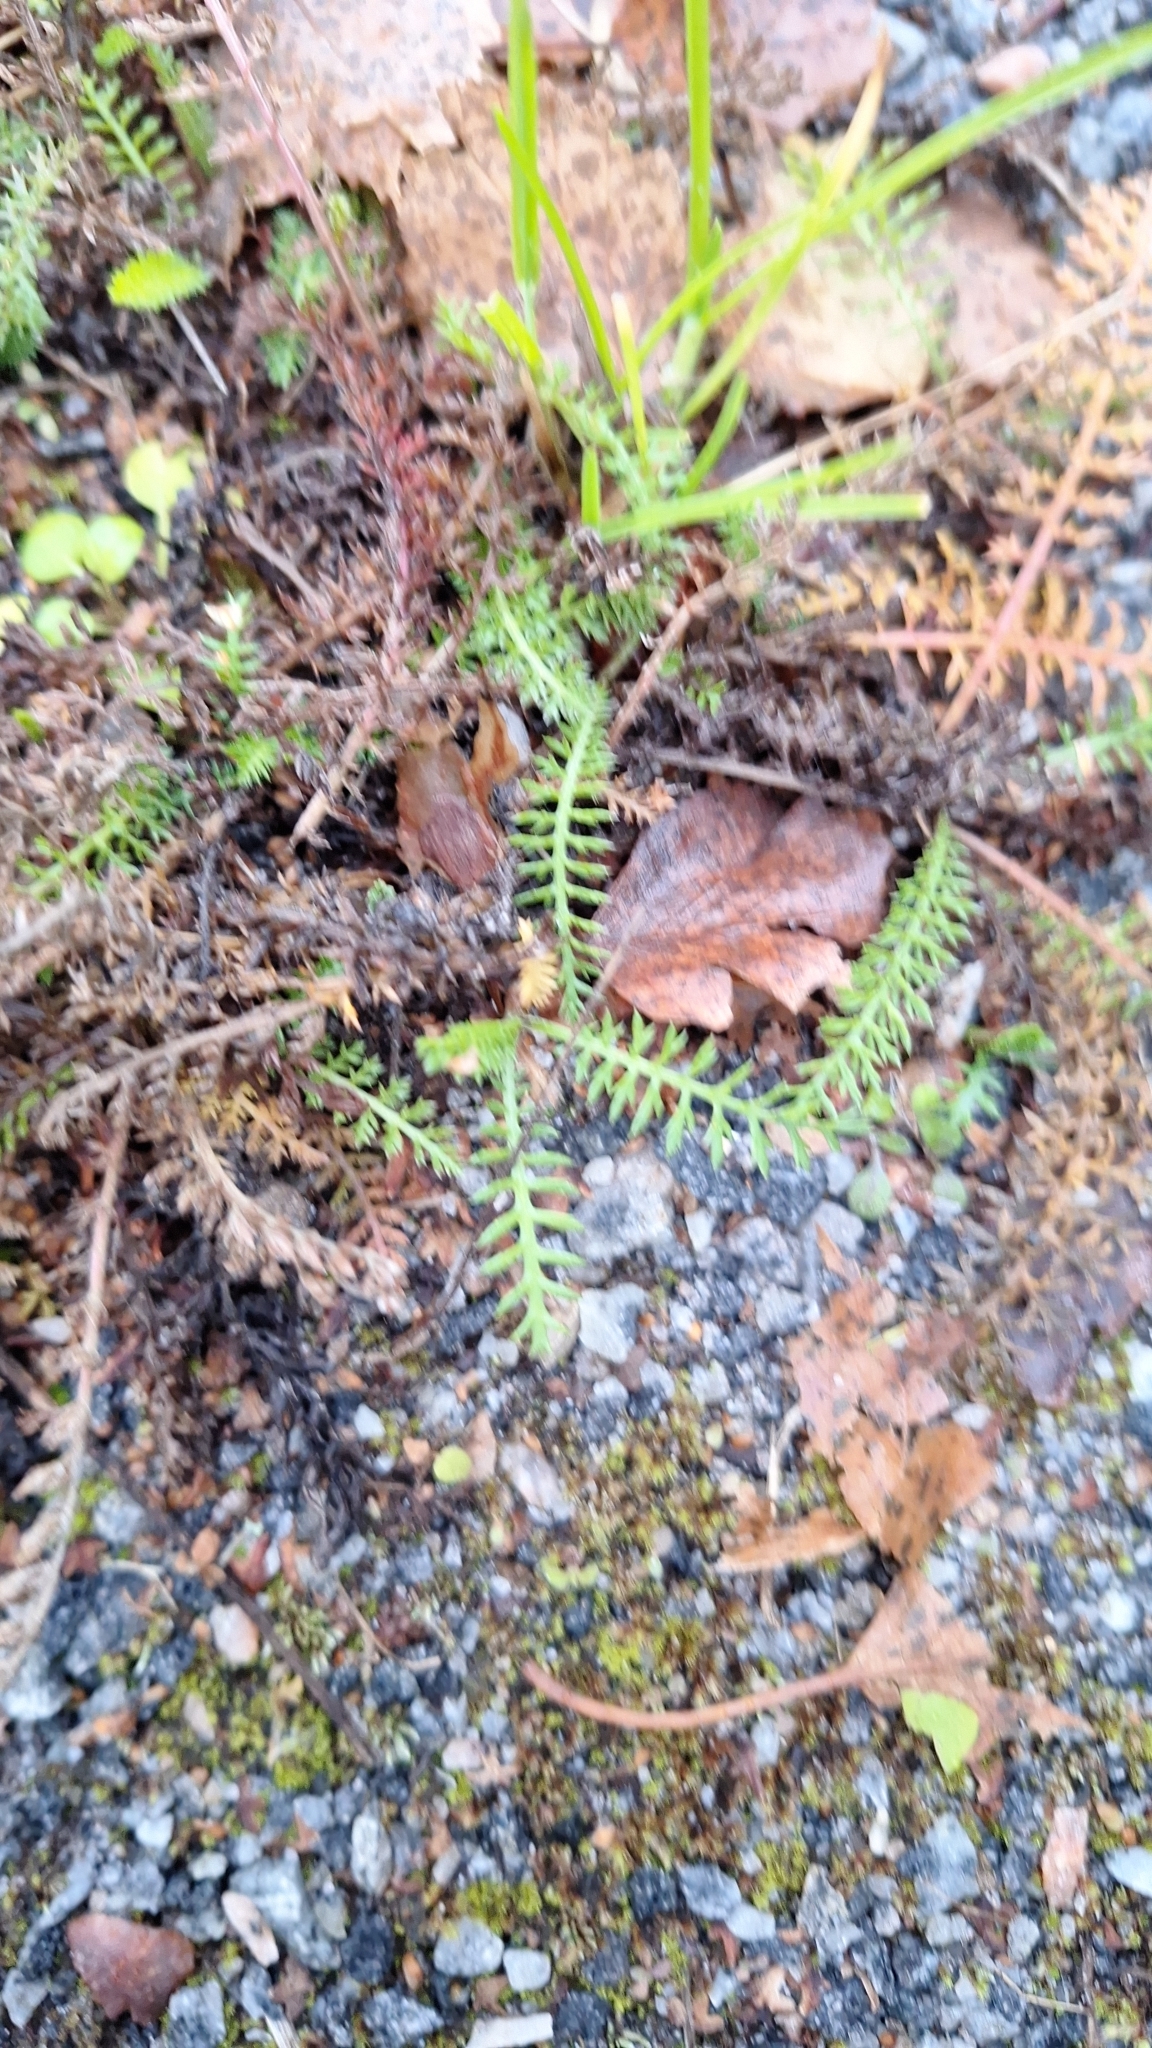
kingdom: Plantae
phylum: Tracheophyta
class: Magnoliopsida
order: Asterales
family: Asteraceae
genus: Achillea
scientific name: Achillea millefolium
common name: Yarrow
